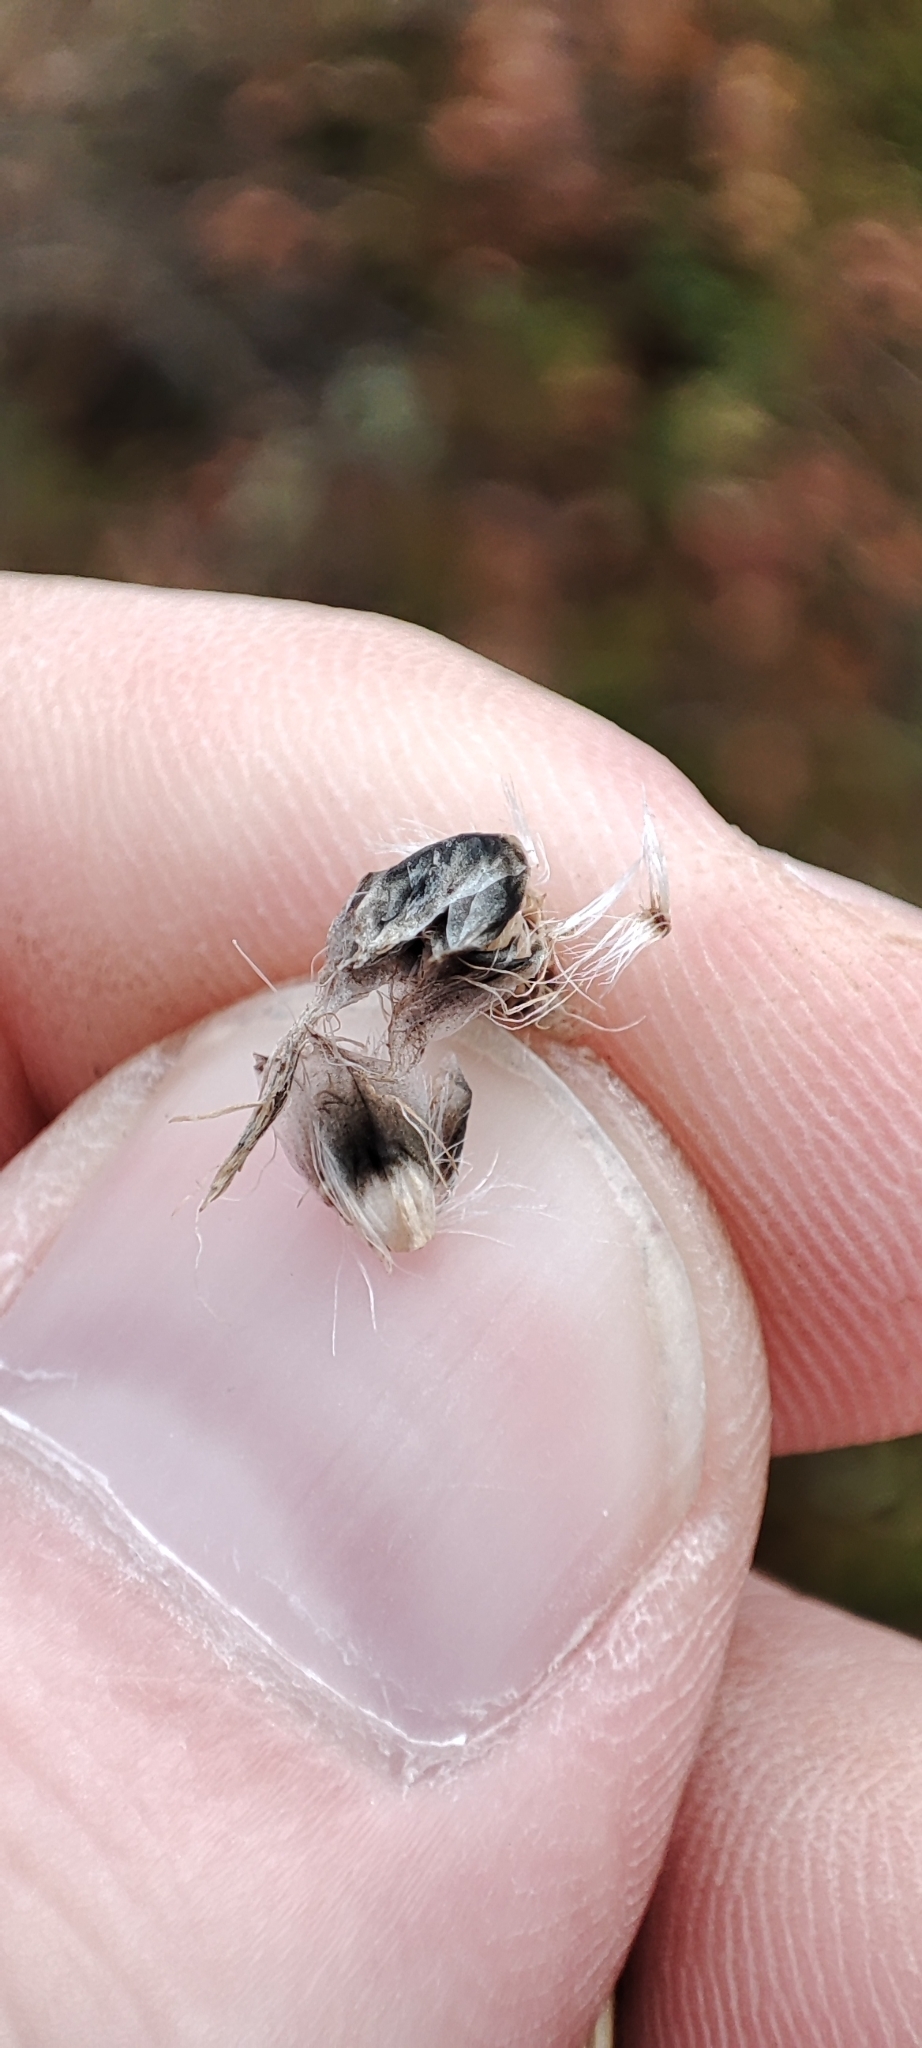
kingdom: Plantae
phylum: Tracheophyta
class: Liliopsida
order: Poales
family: Cyperaceae
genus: Eriophorum
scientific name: Eriophorum scheuchzeri
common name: Scheuchzer's cottongrass
